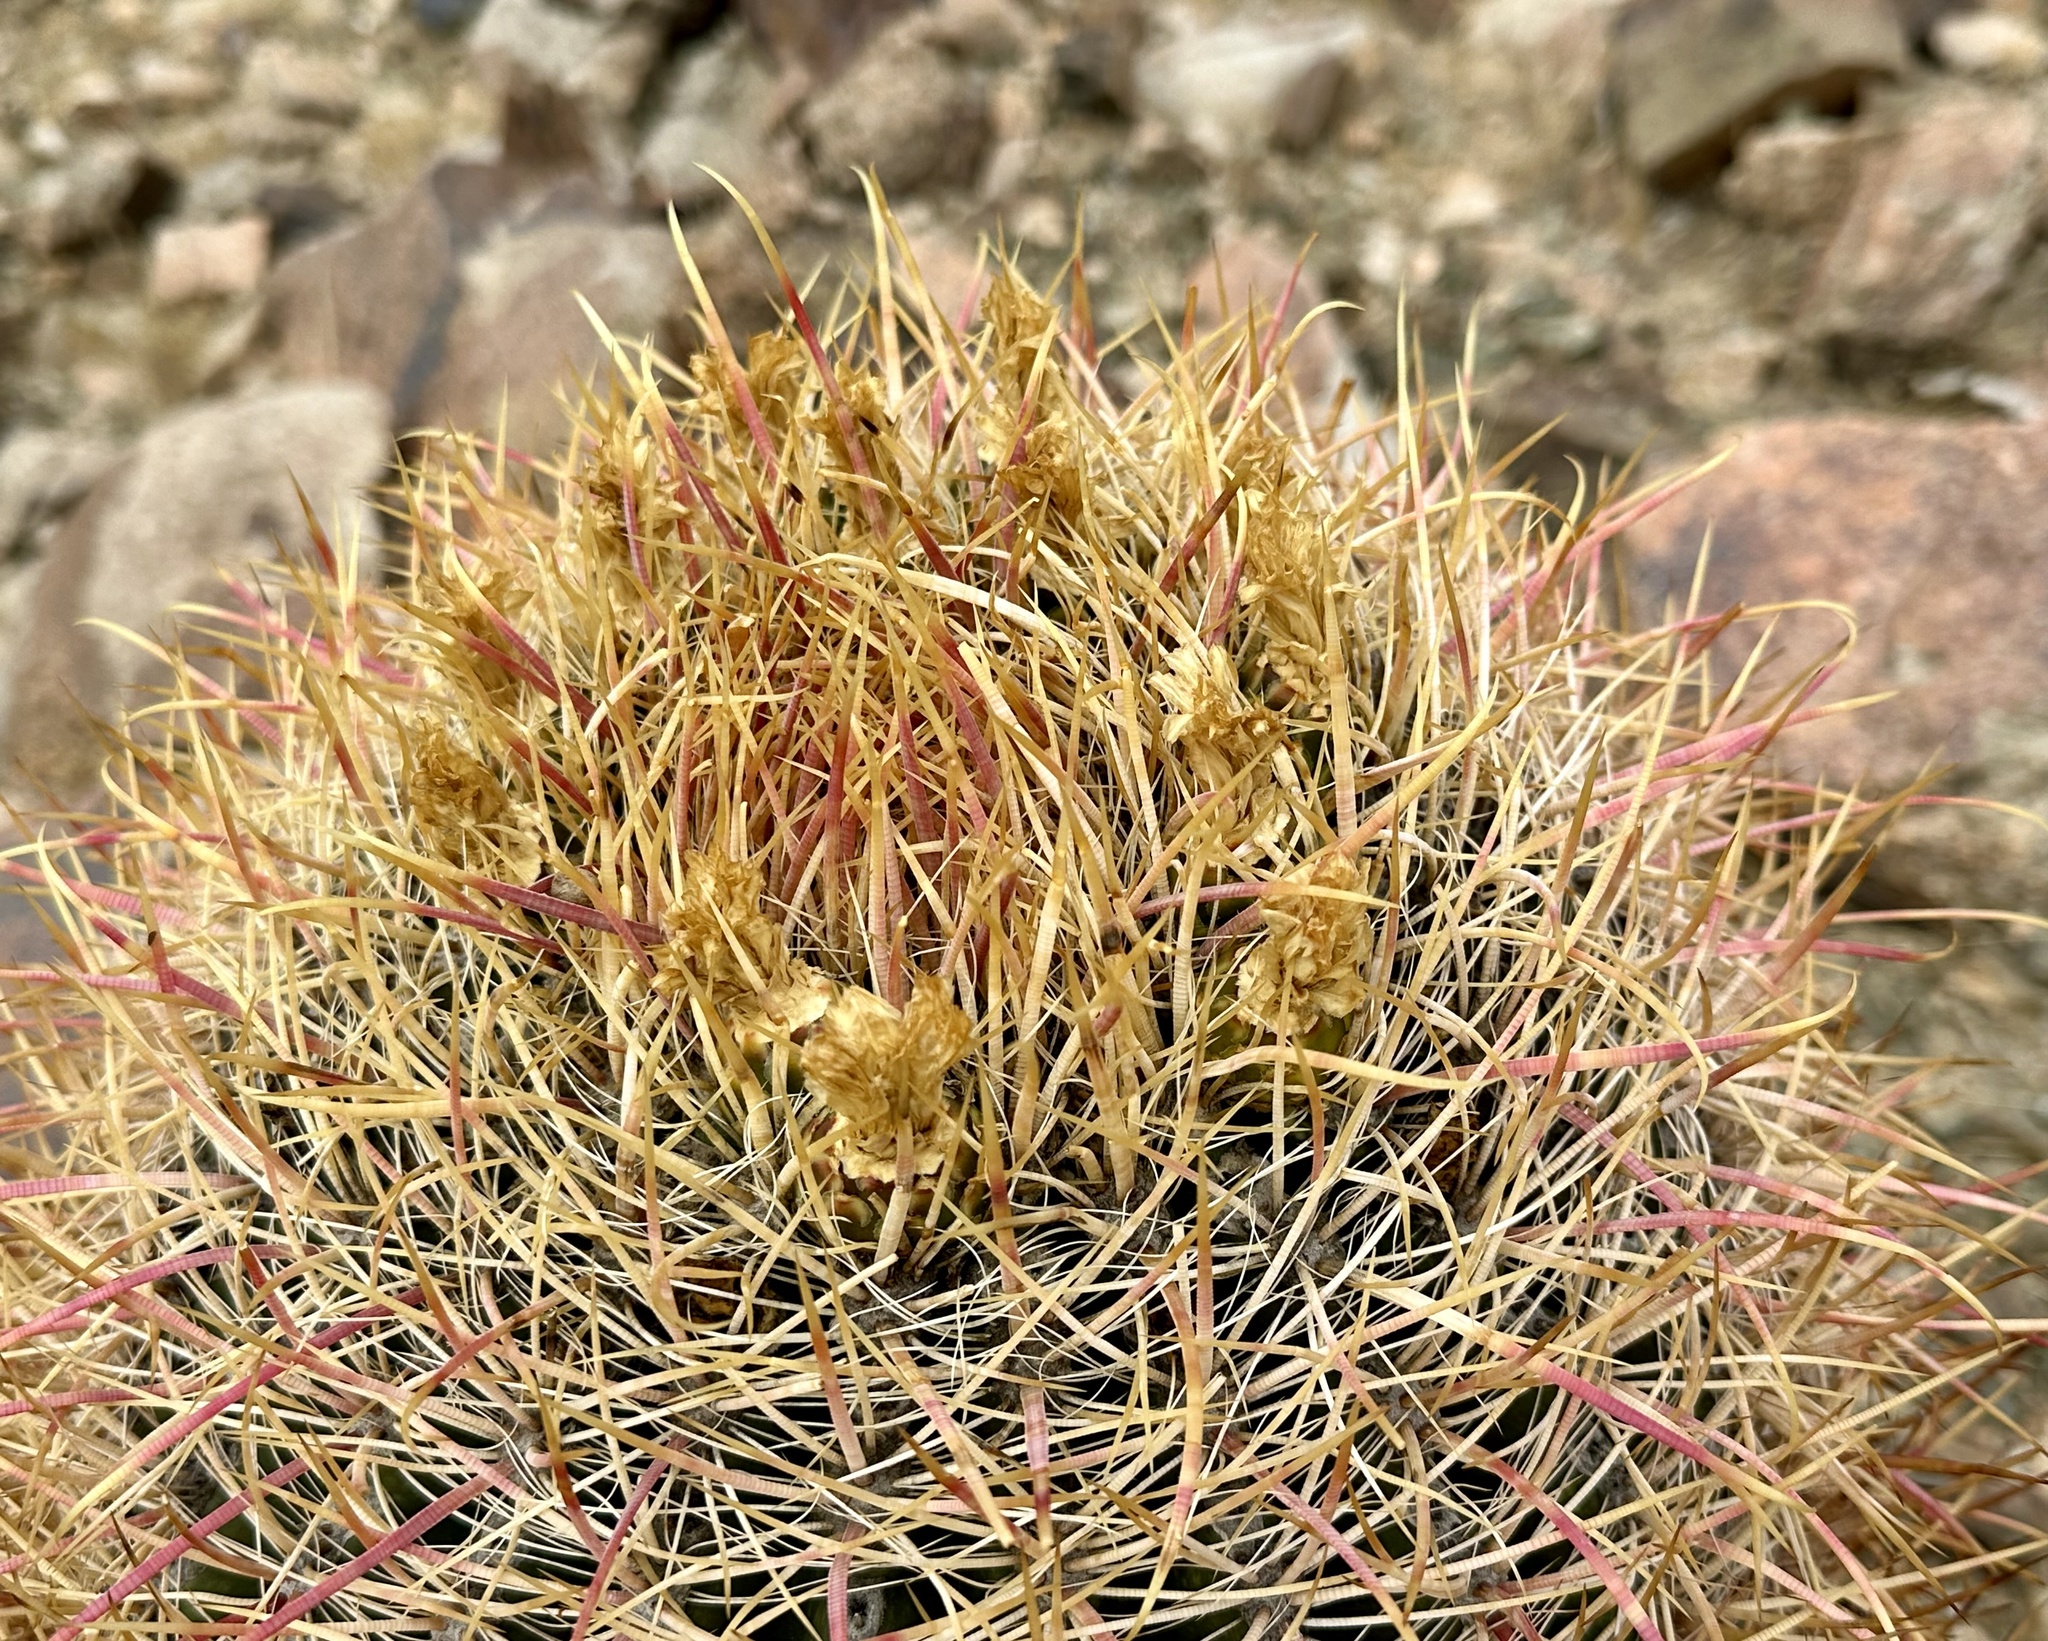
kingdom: Plantae
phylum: Tracheophyta
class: Magnoliopsida
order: Caryophyllales
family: Cactaceae
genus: Ferocactus
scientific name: Ferocactus cylindraceus
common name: California barrel cactus
